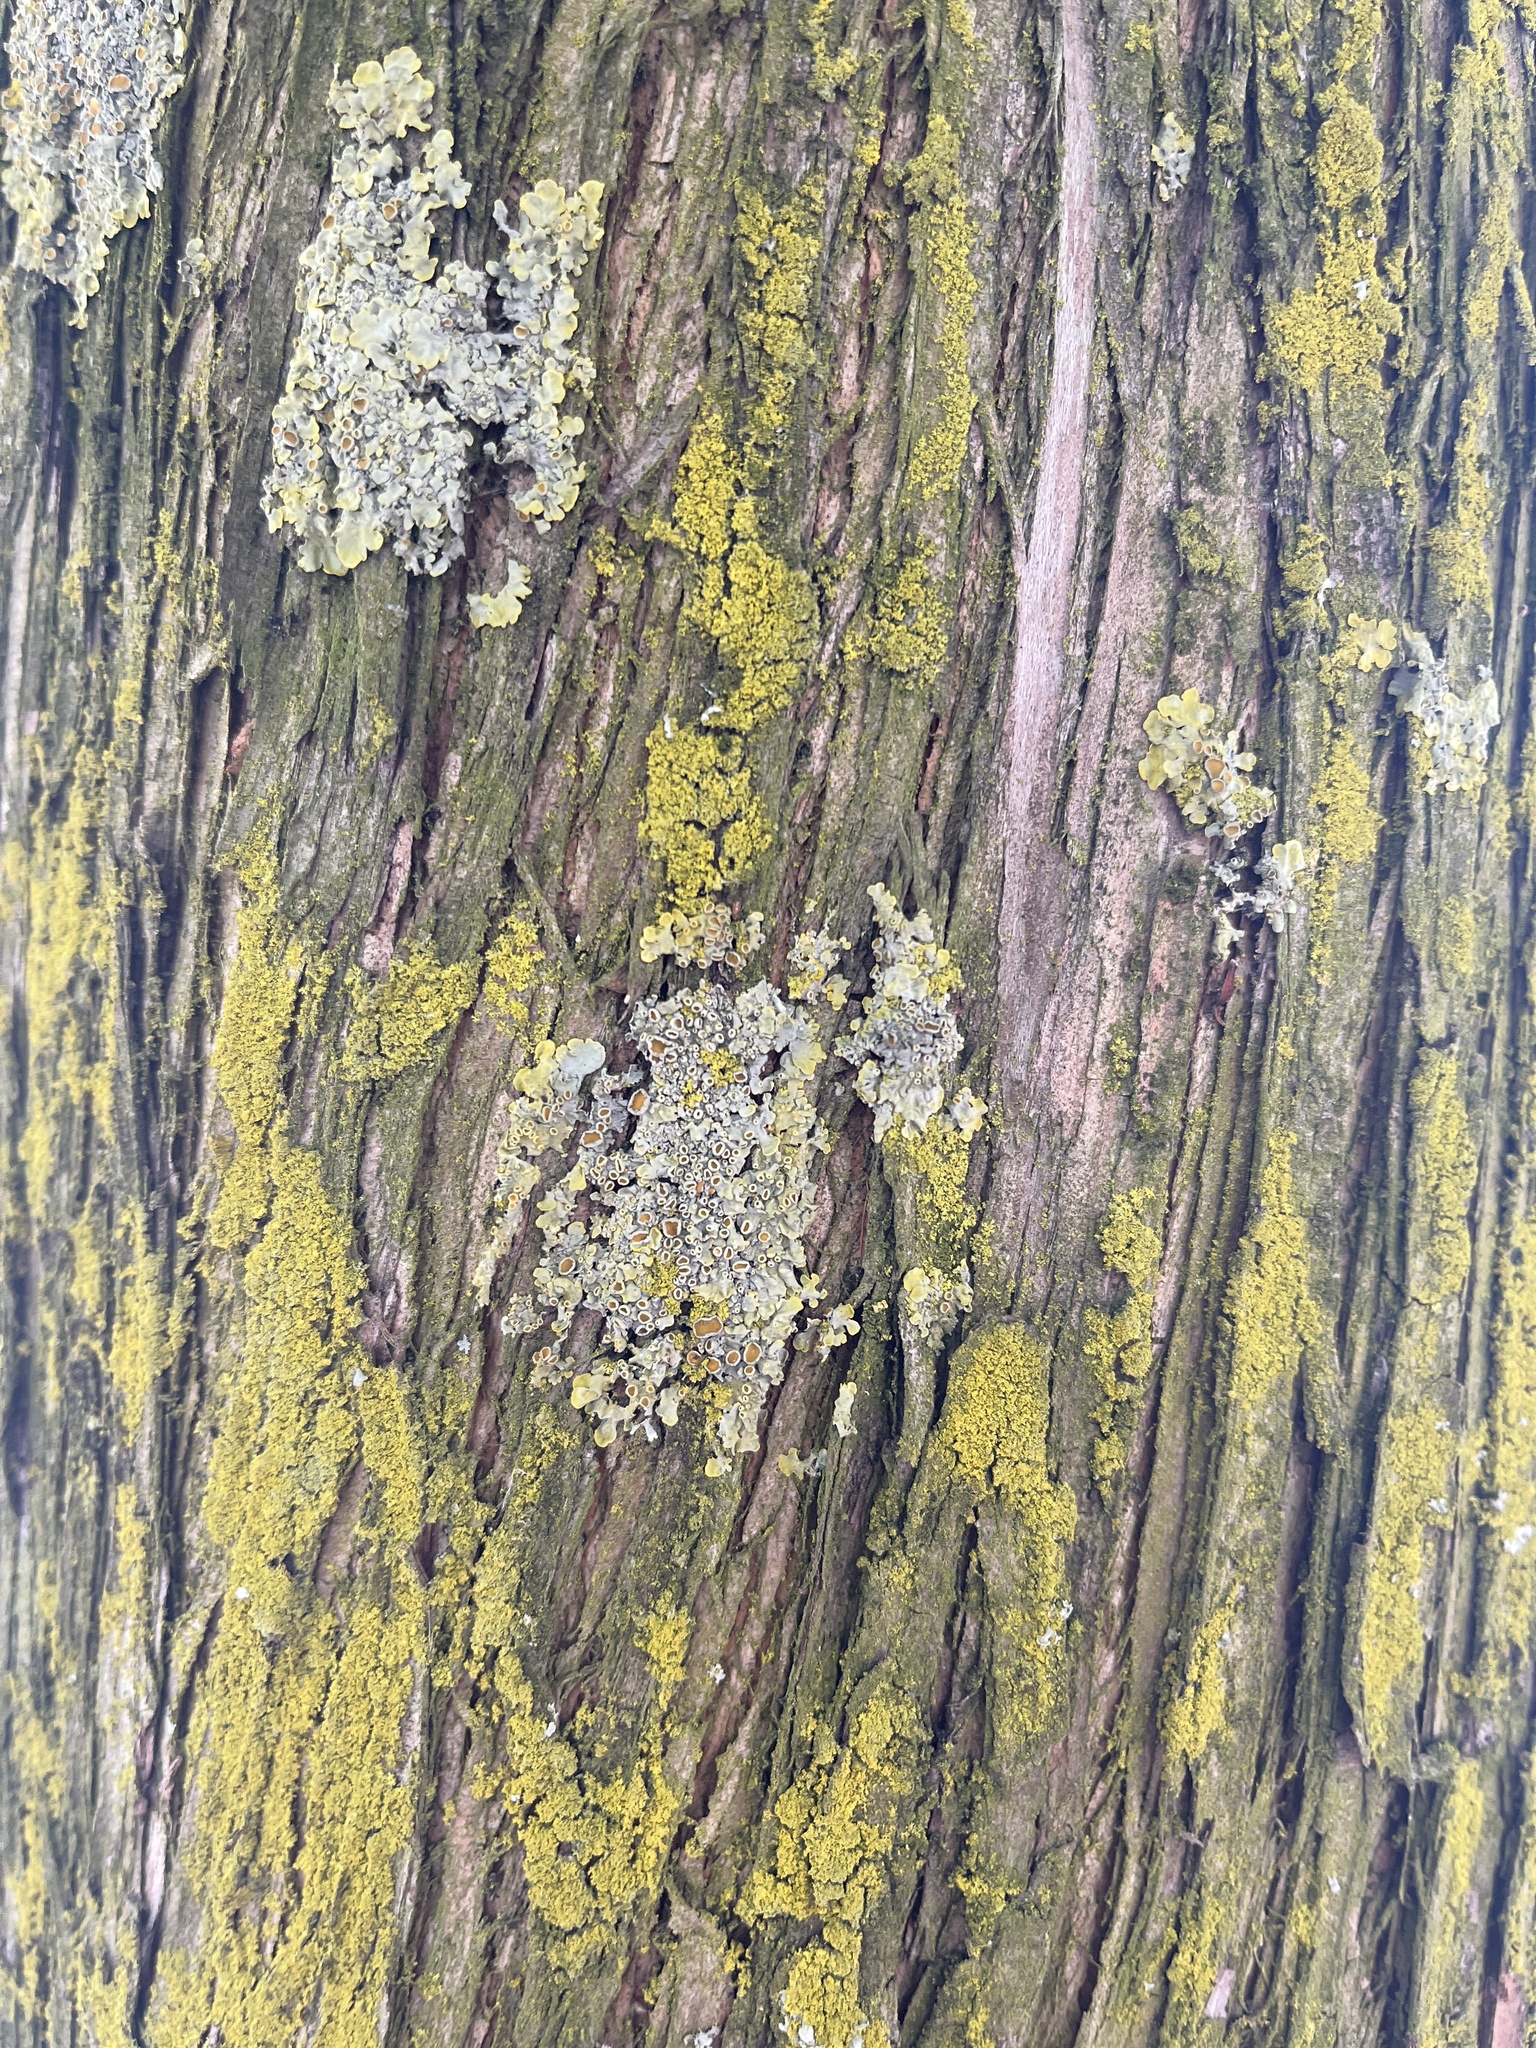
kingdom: Fungi
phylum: Ascomycota
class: Lecanoromycetes
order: Teloschistales
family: Teloschistaceae
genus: Xanthoria
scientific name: Xanthoria parietina
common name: Common orange lichen
